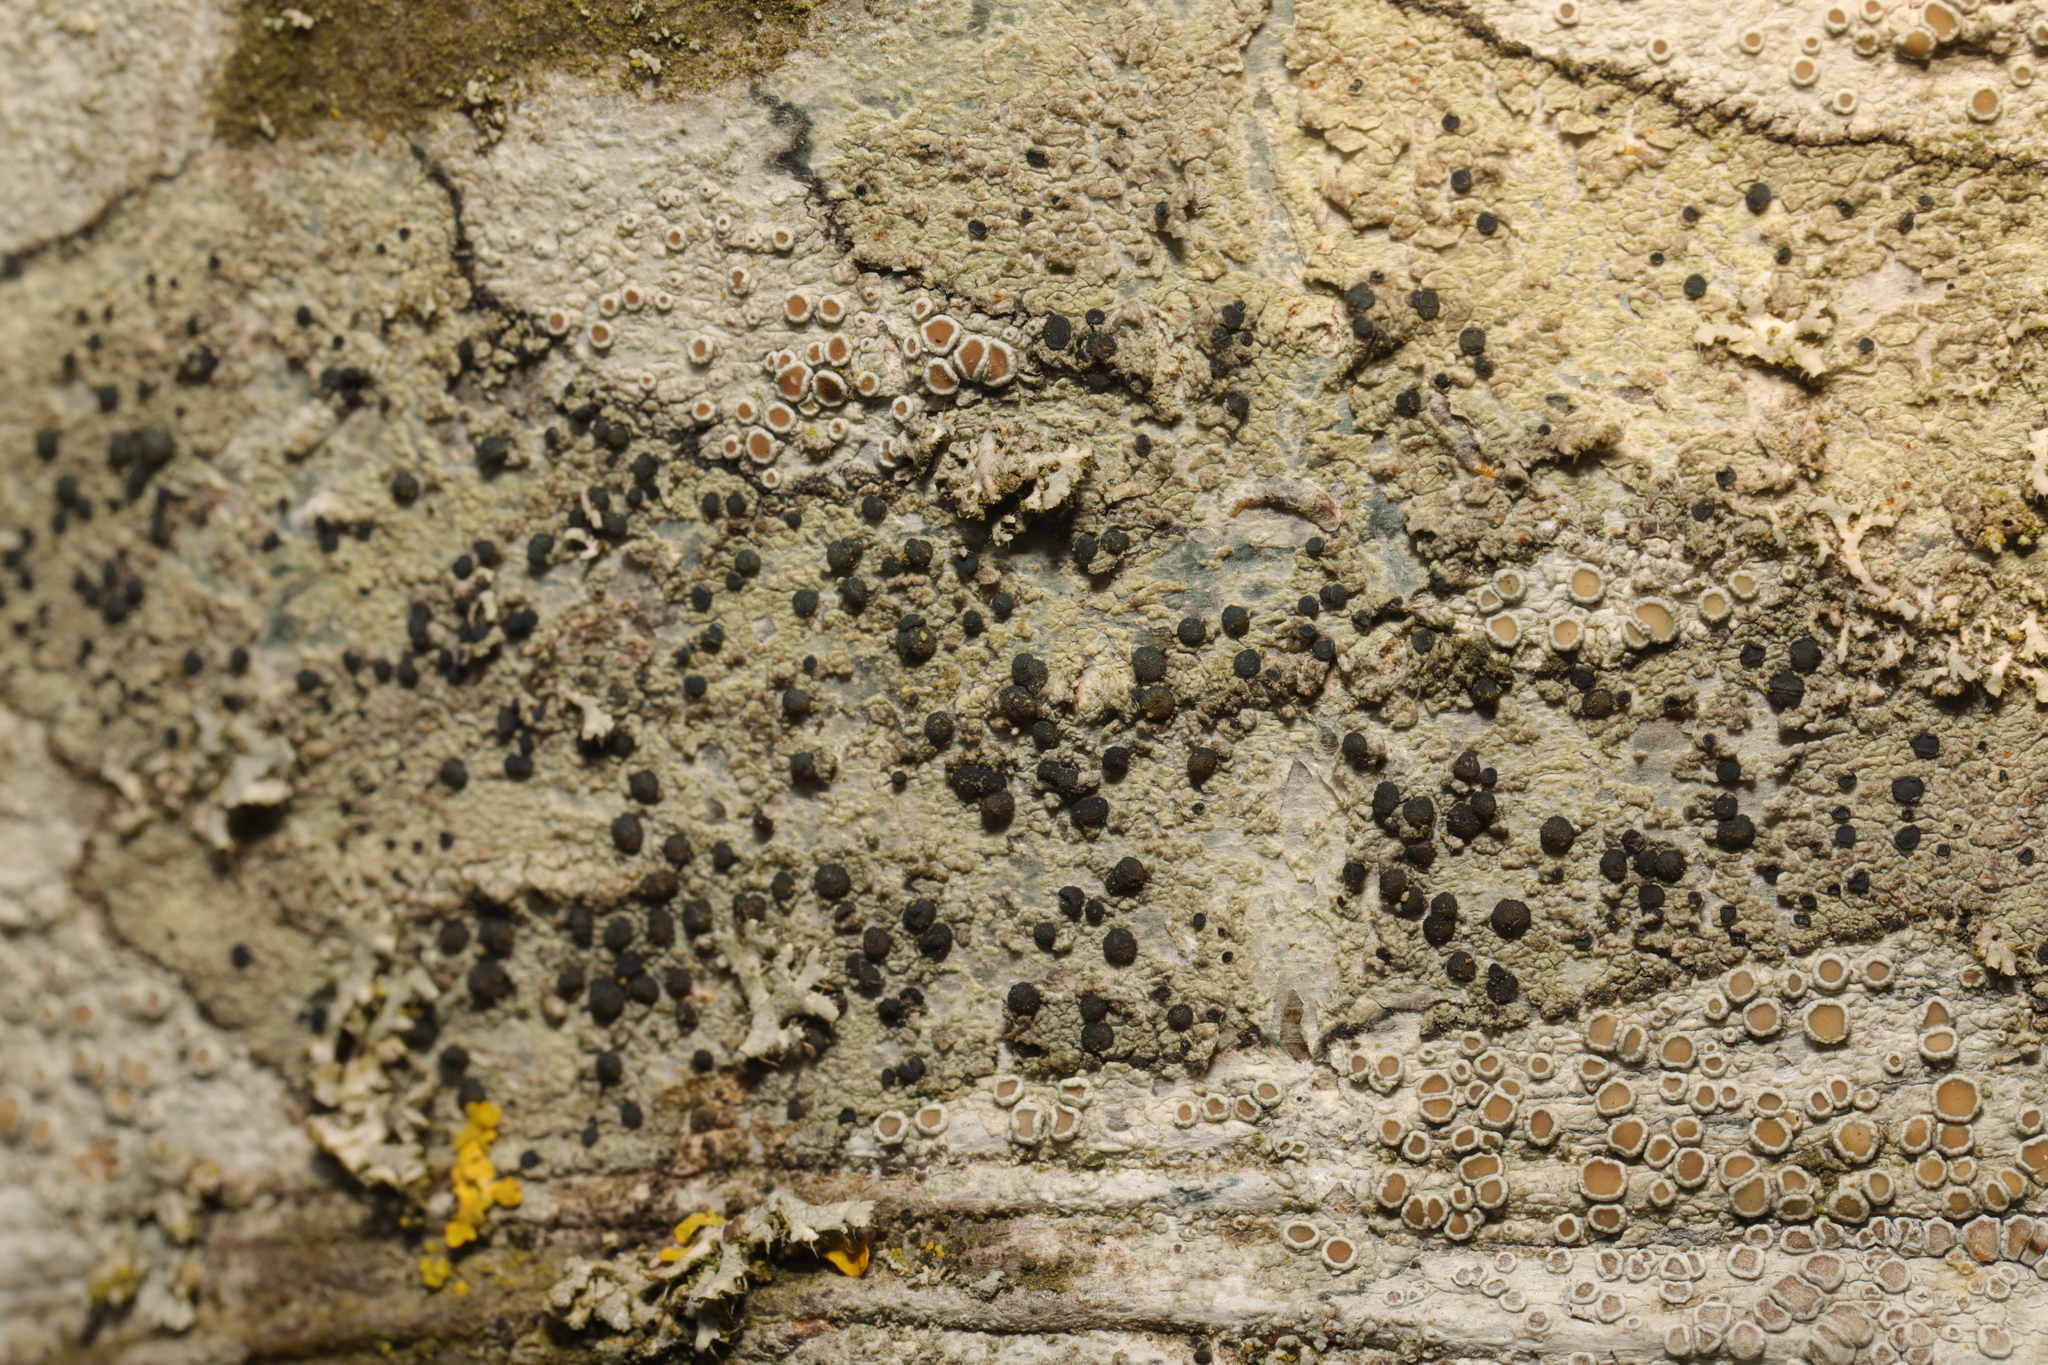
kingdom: Fungi
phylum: Ascomycota
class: Lecanoromycetes
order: Lecanorales
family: Lecanoraceae
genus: Lecidella
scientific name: Lecidella elaeochroma
